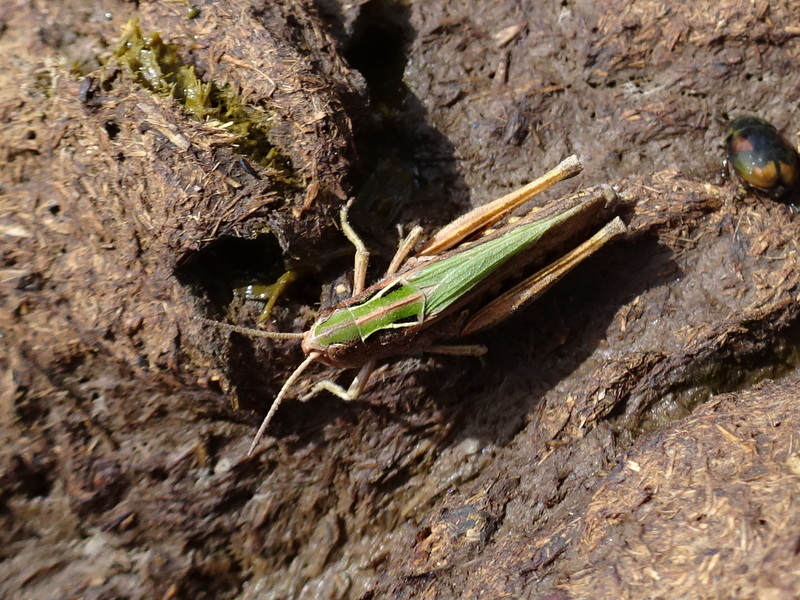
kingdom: Animalia
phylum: Arthropoda
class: Insecta
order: Orthoptera
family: Acrididae
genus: Omocestus
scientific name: Omocestus rufipes
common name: Woodland grasshopper
